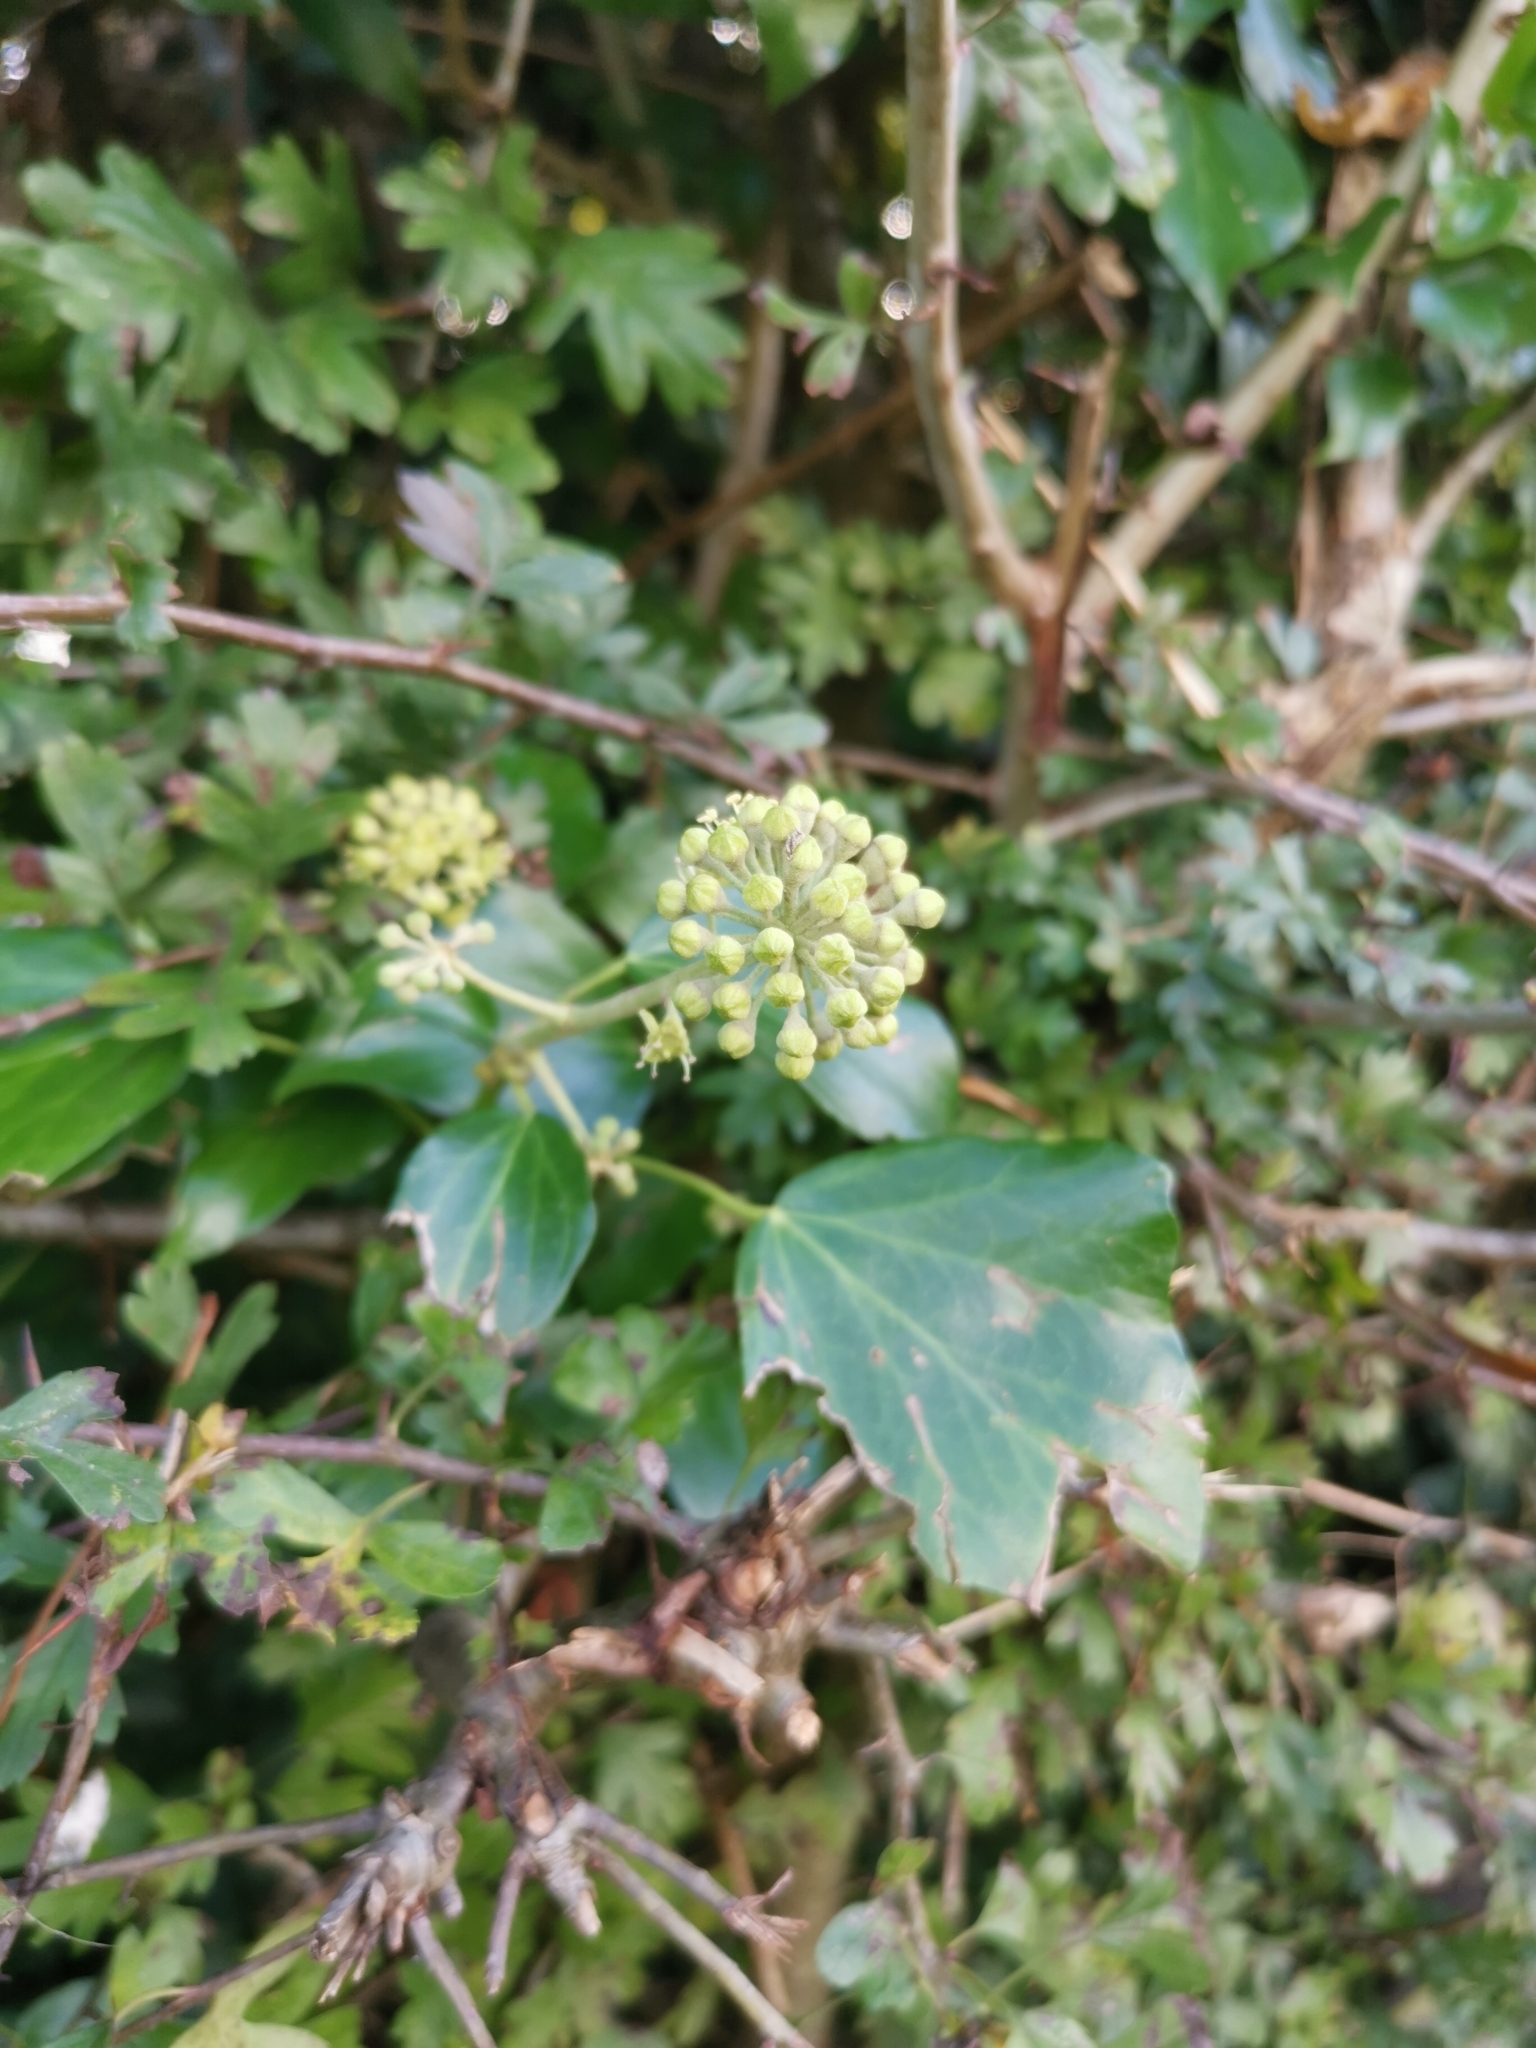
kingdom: Plantae
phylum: Tracheophyta
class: Magnoliopsida
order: Apiales
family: Araliaceae
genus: Hedera
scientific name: Hedera helix
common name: Ivy
